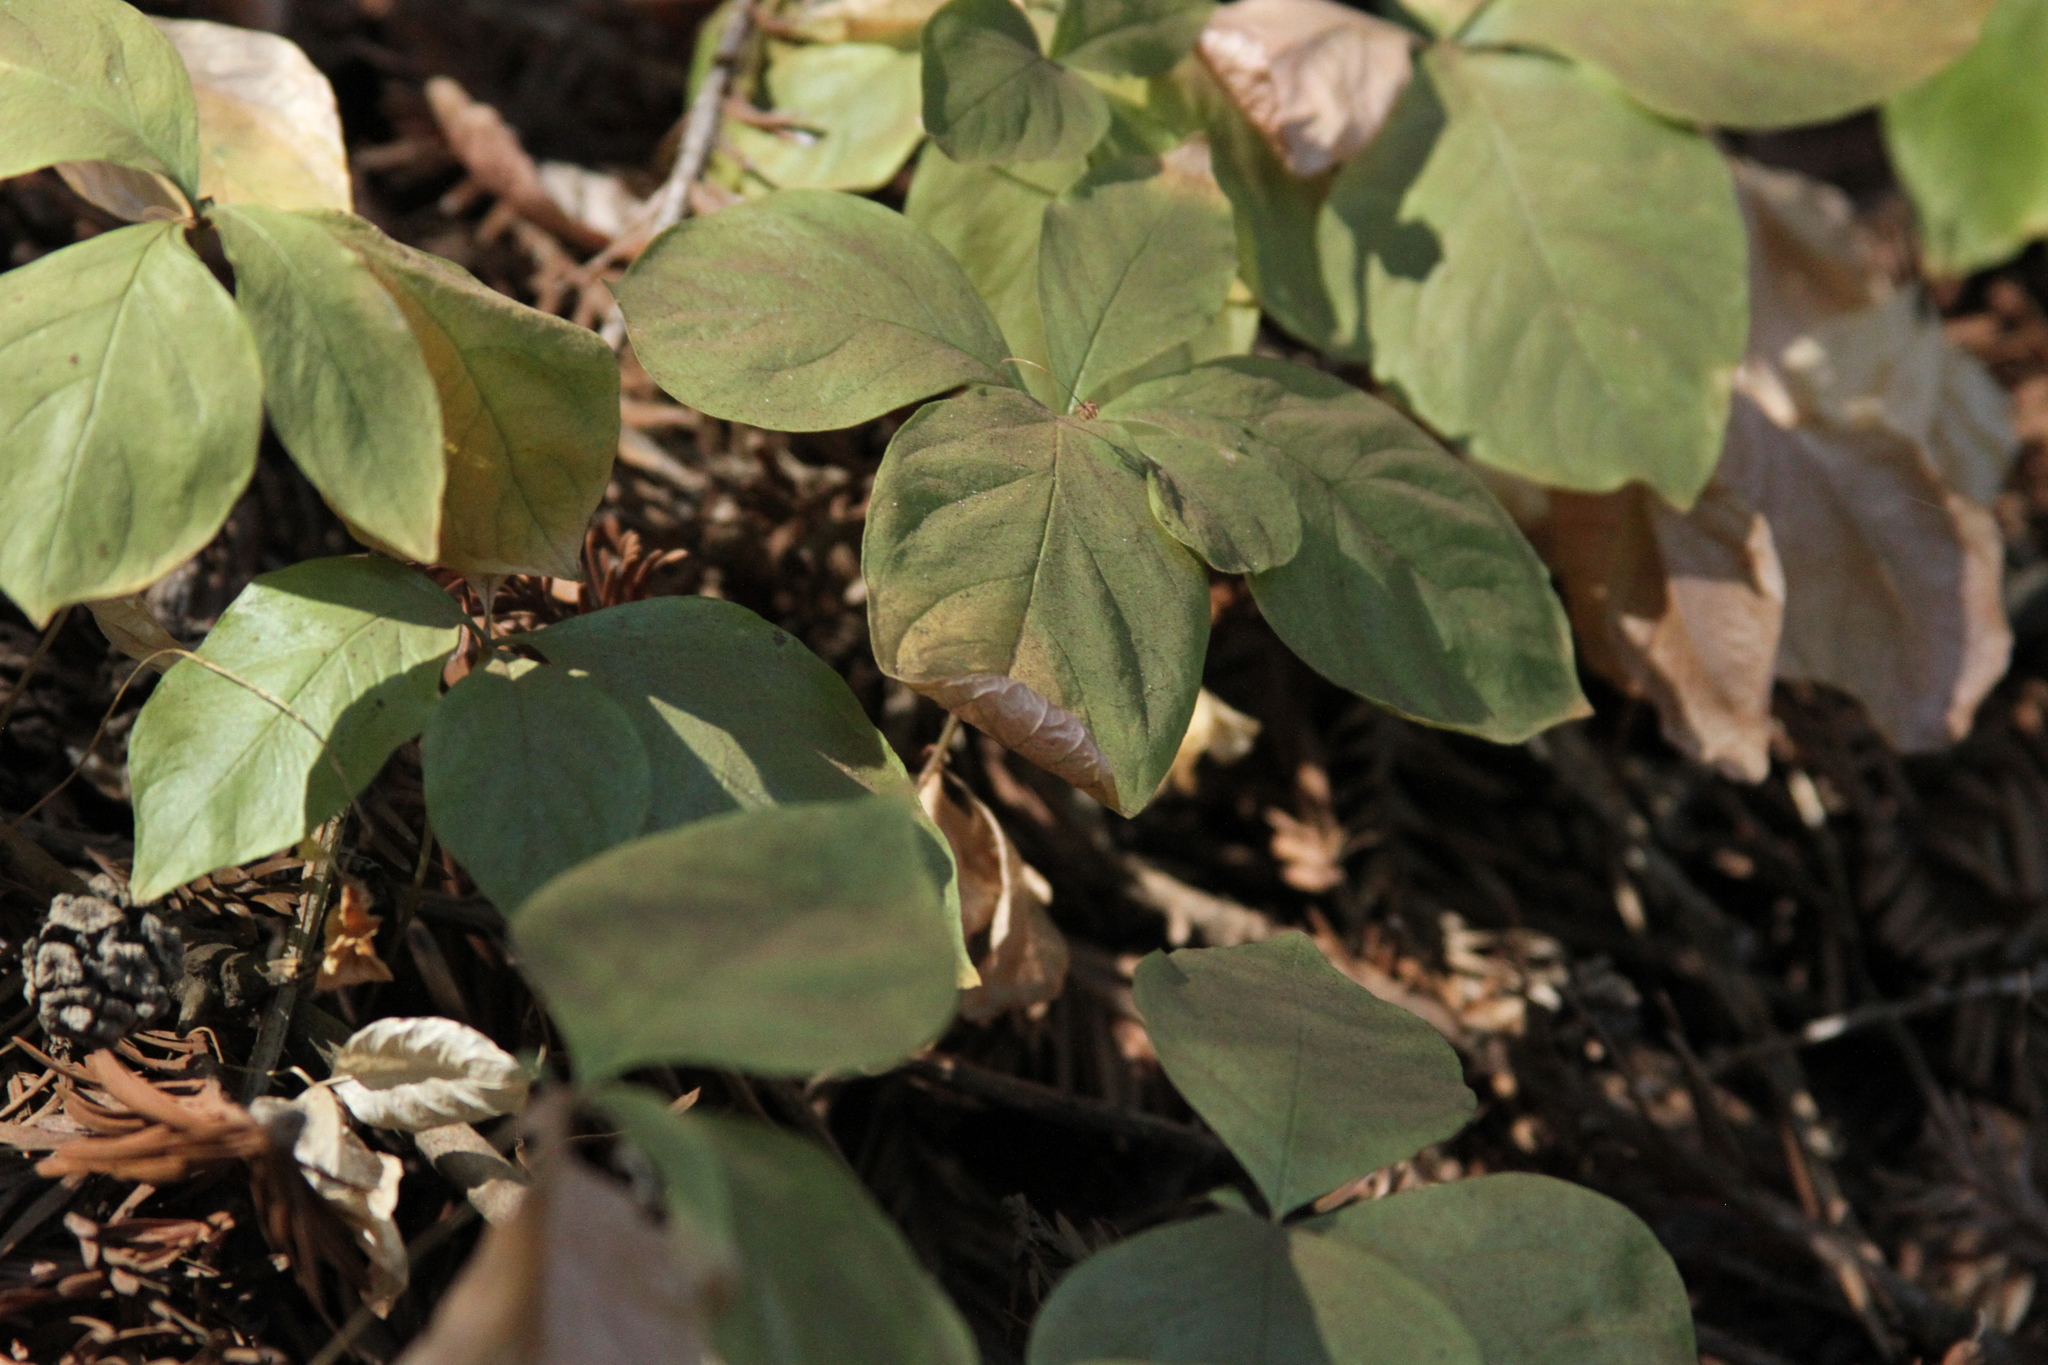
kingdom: Plantae
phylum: Tracheophyta
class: Magnoliopsida
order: Ericales
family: Primulaceae
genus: Lysimachia
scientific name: Lysimachia latifolia
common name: Pacific starflower
